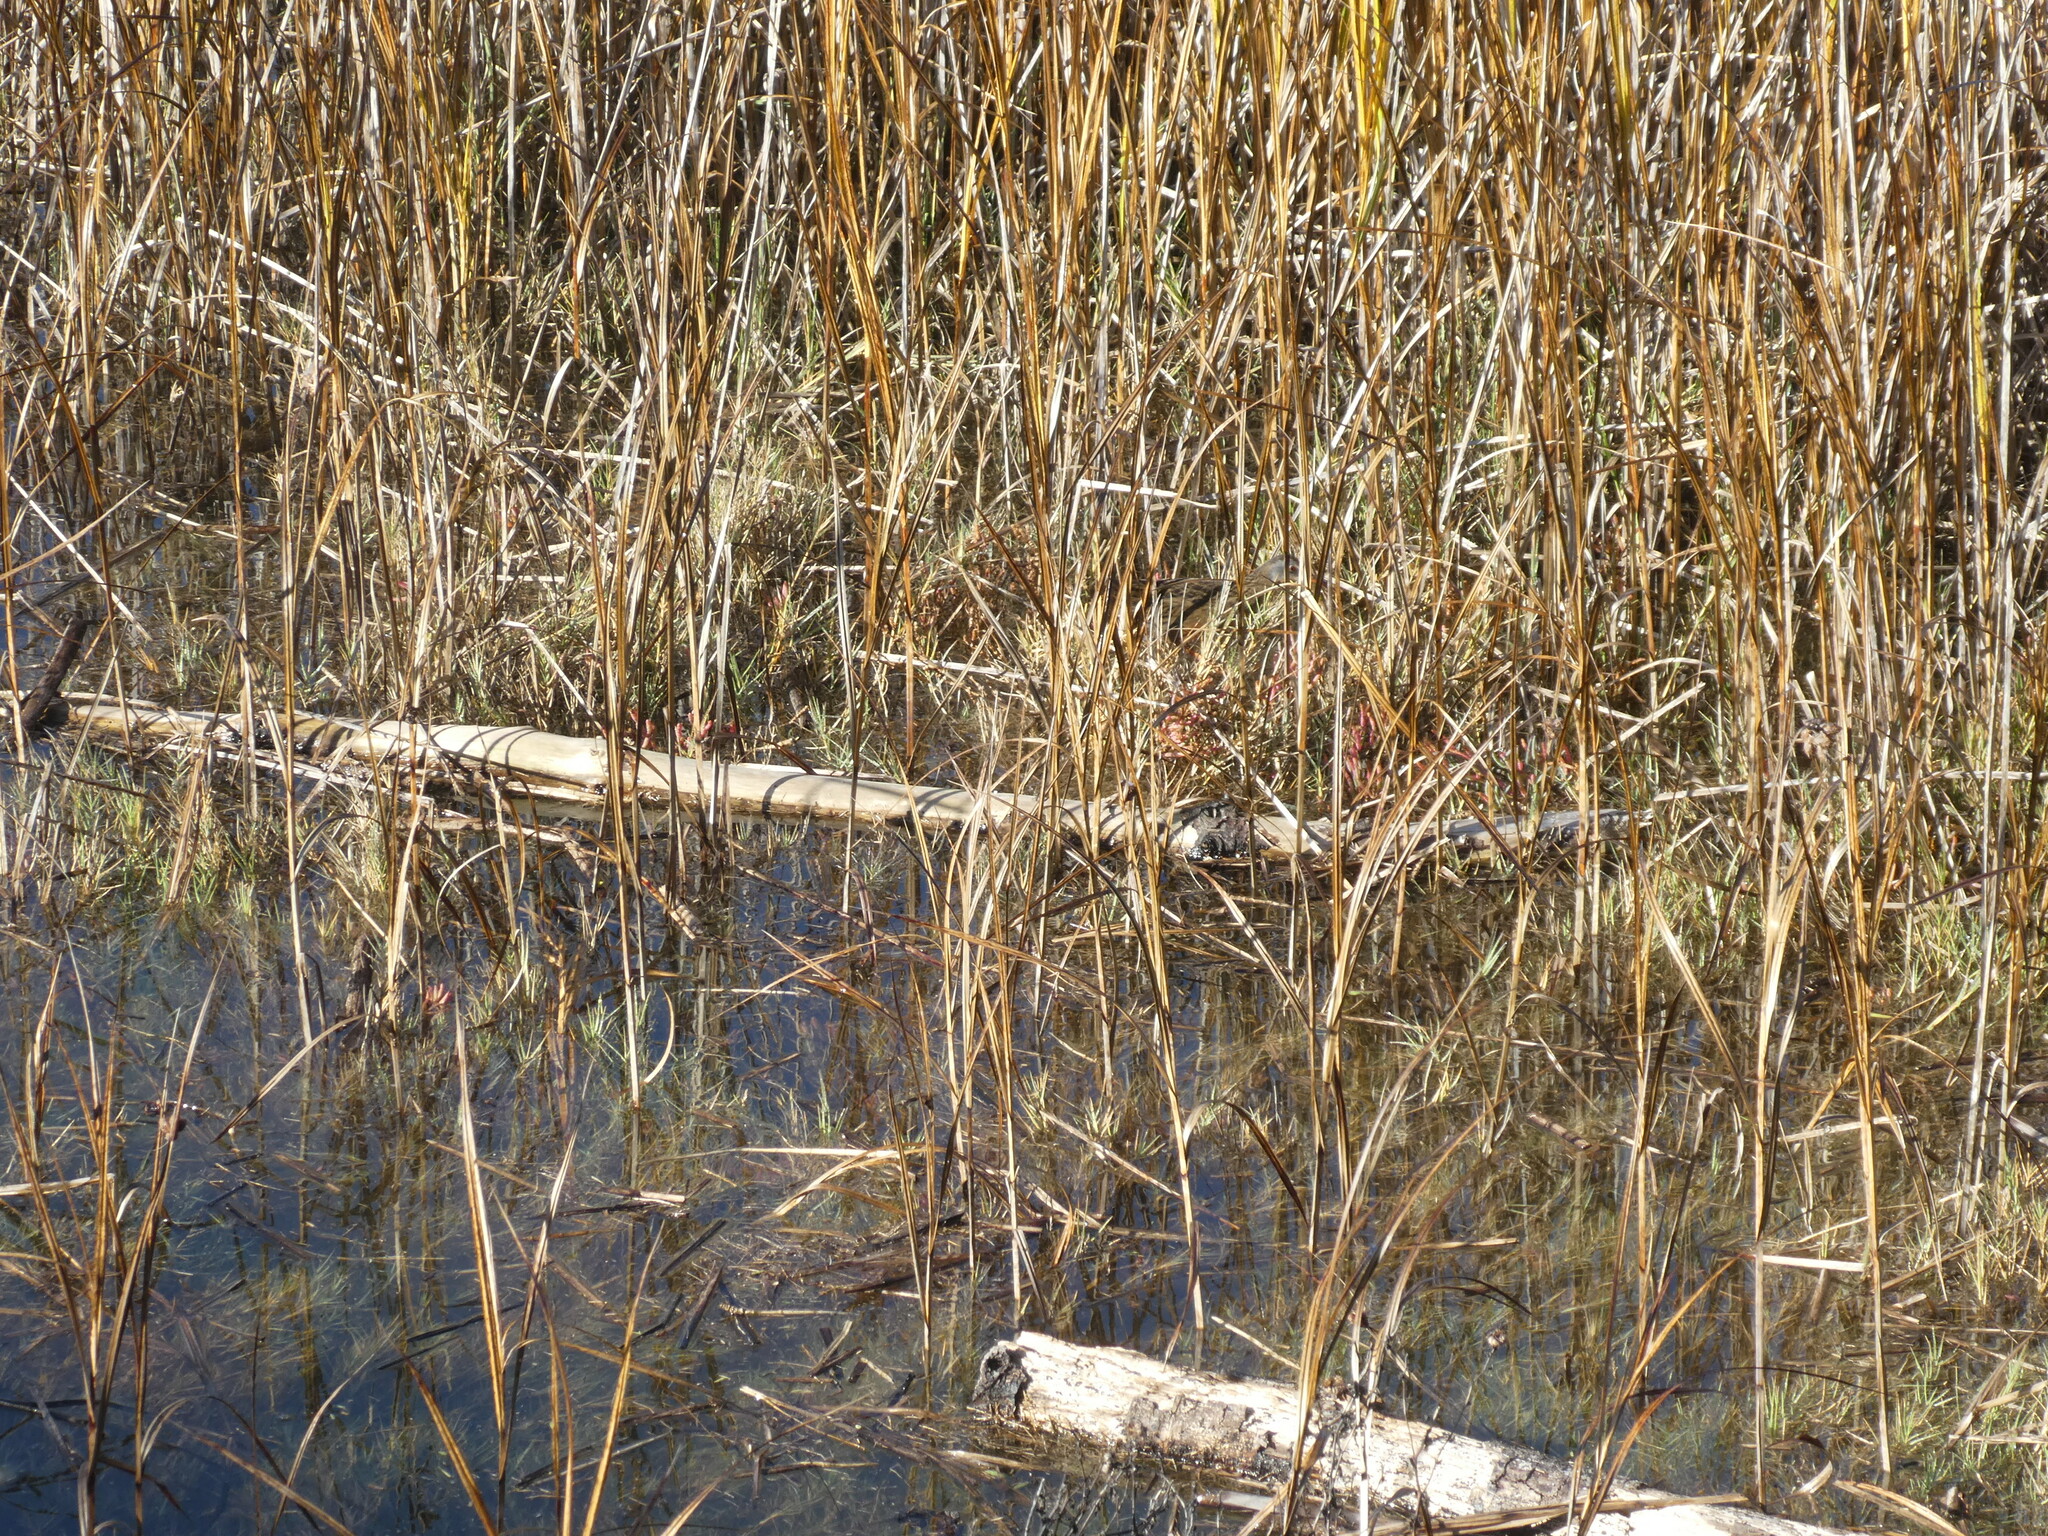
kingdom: Animalia
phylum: Chordata
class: Aves
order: Gruiformes
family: Rallidae
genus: Rallus
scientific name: Rallus limicola
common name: Virginia rail
